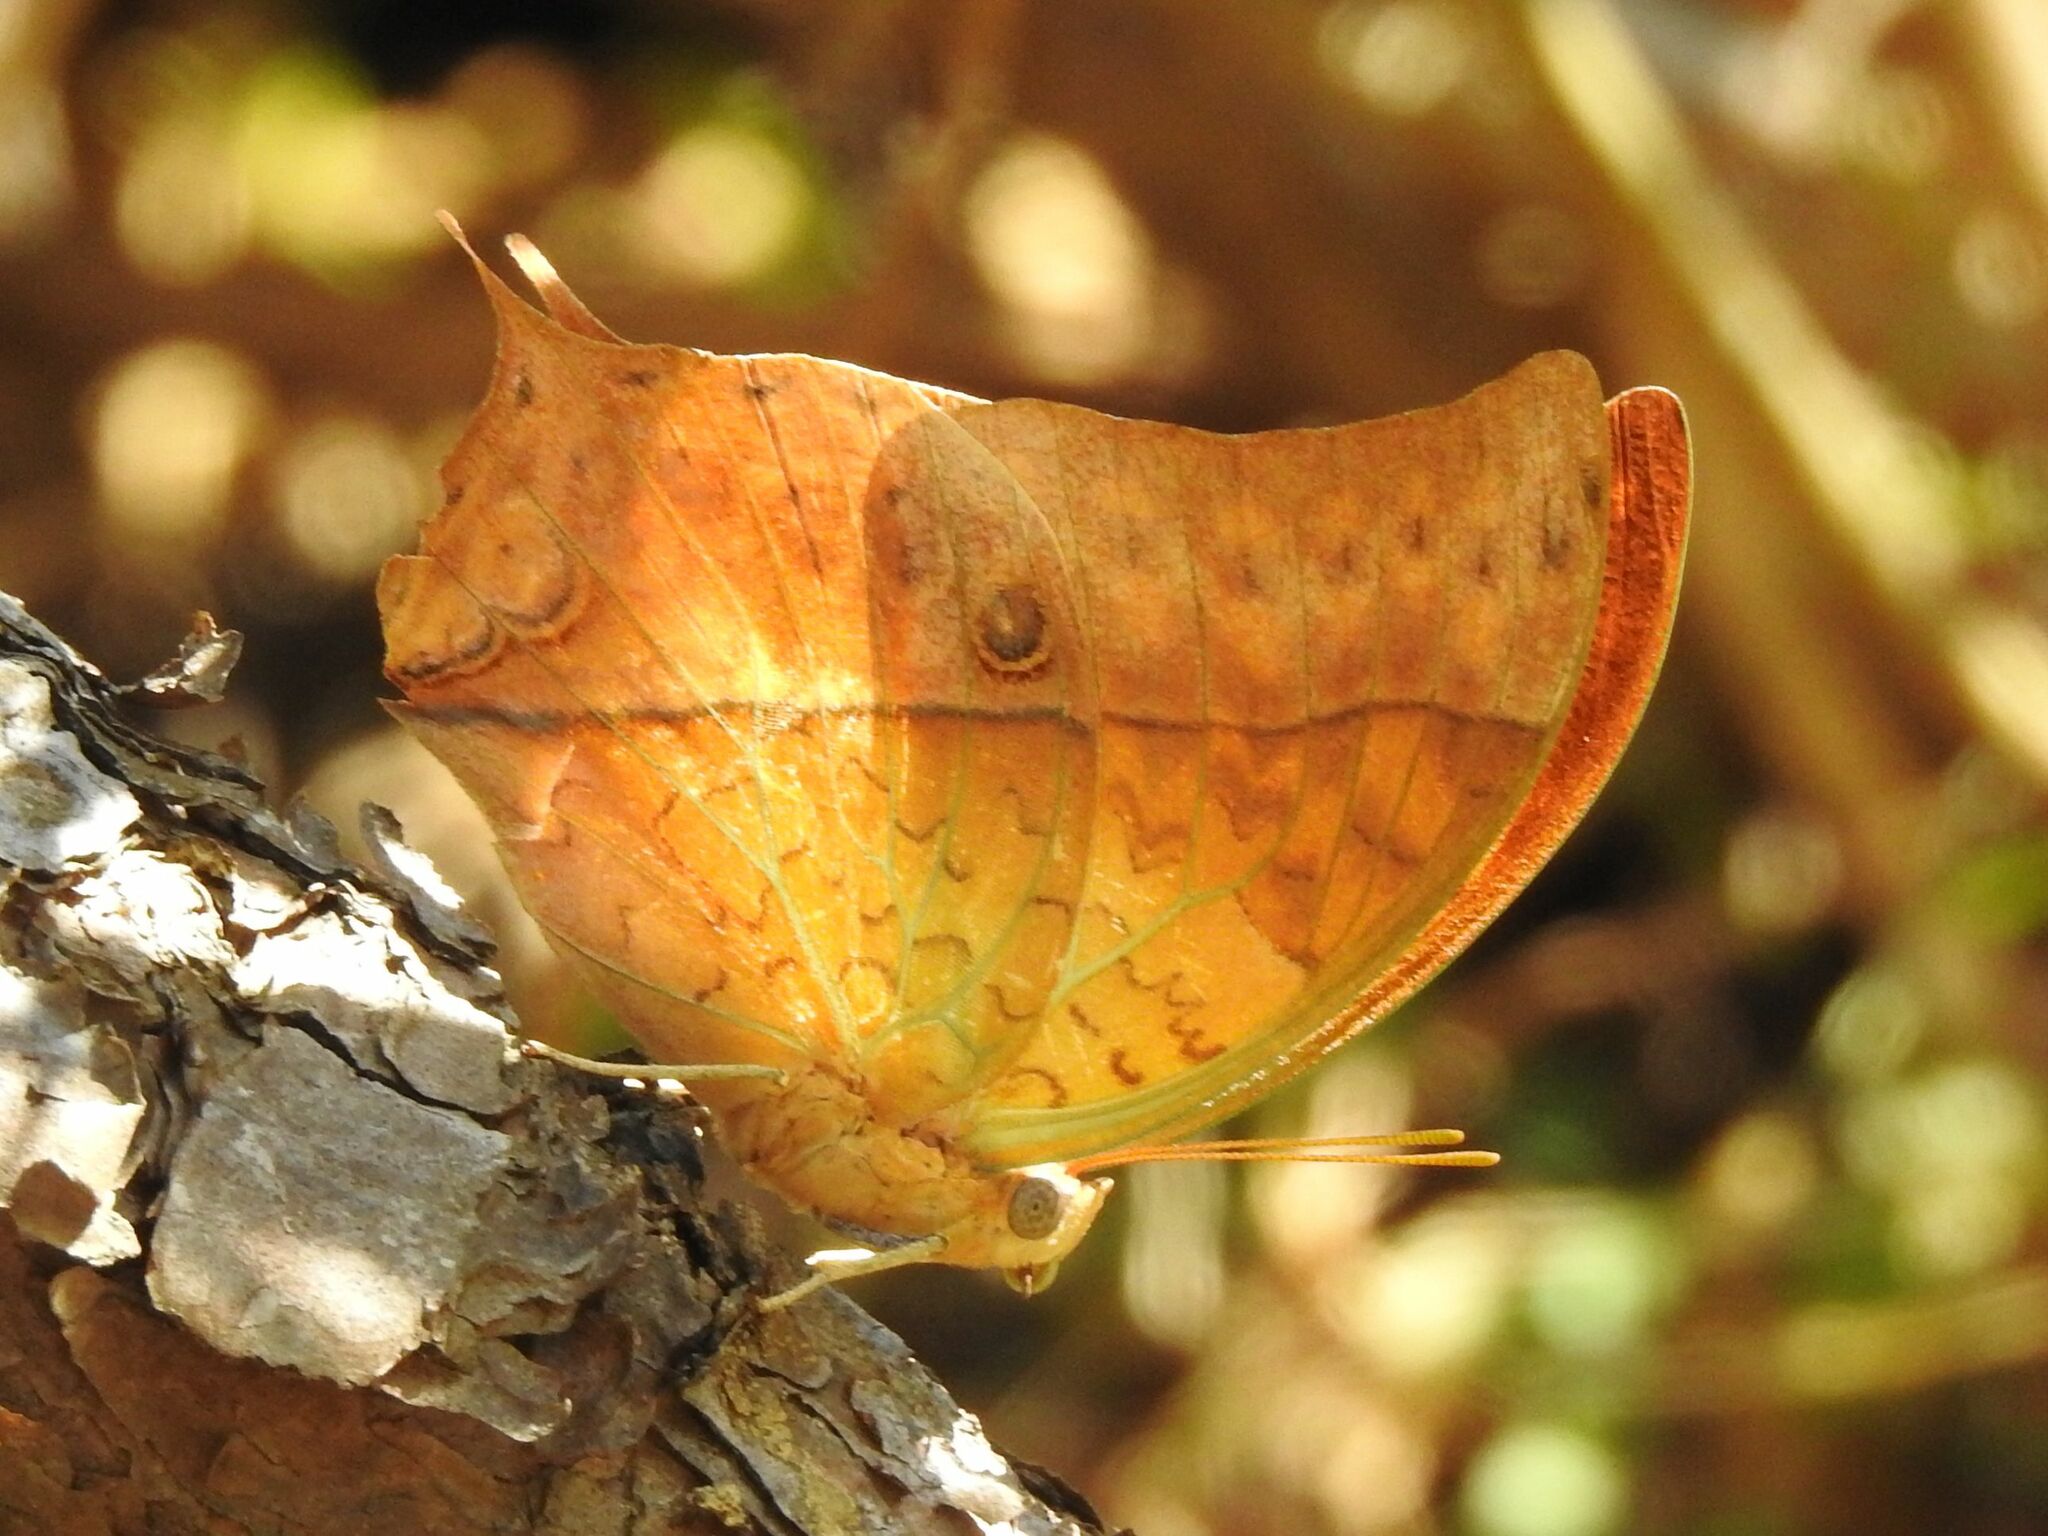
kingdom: Animalia
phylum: Arthropoda
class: Insecta
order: Lepidoptera
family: Nymphalidae
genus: Charaxes
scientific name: Charaxes varanes
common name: Common pearl charaxes
